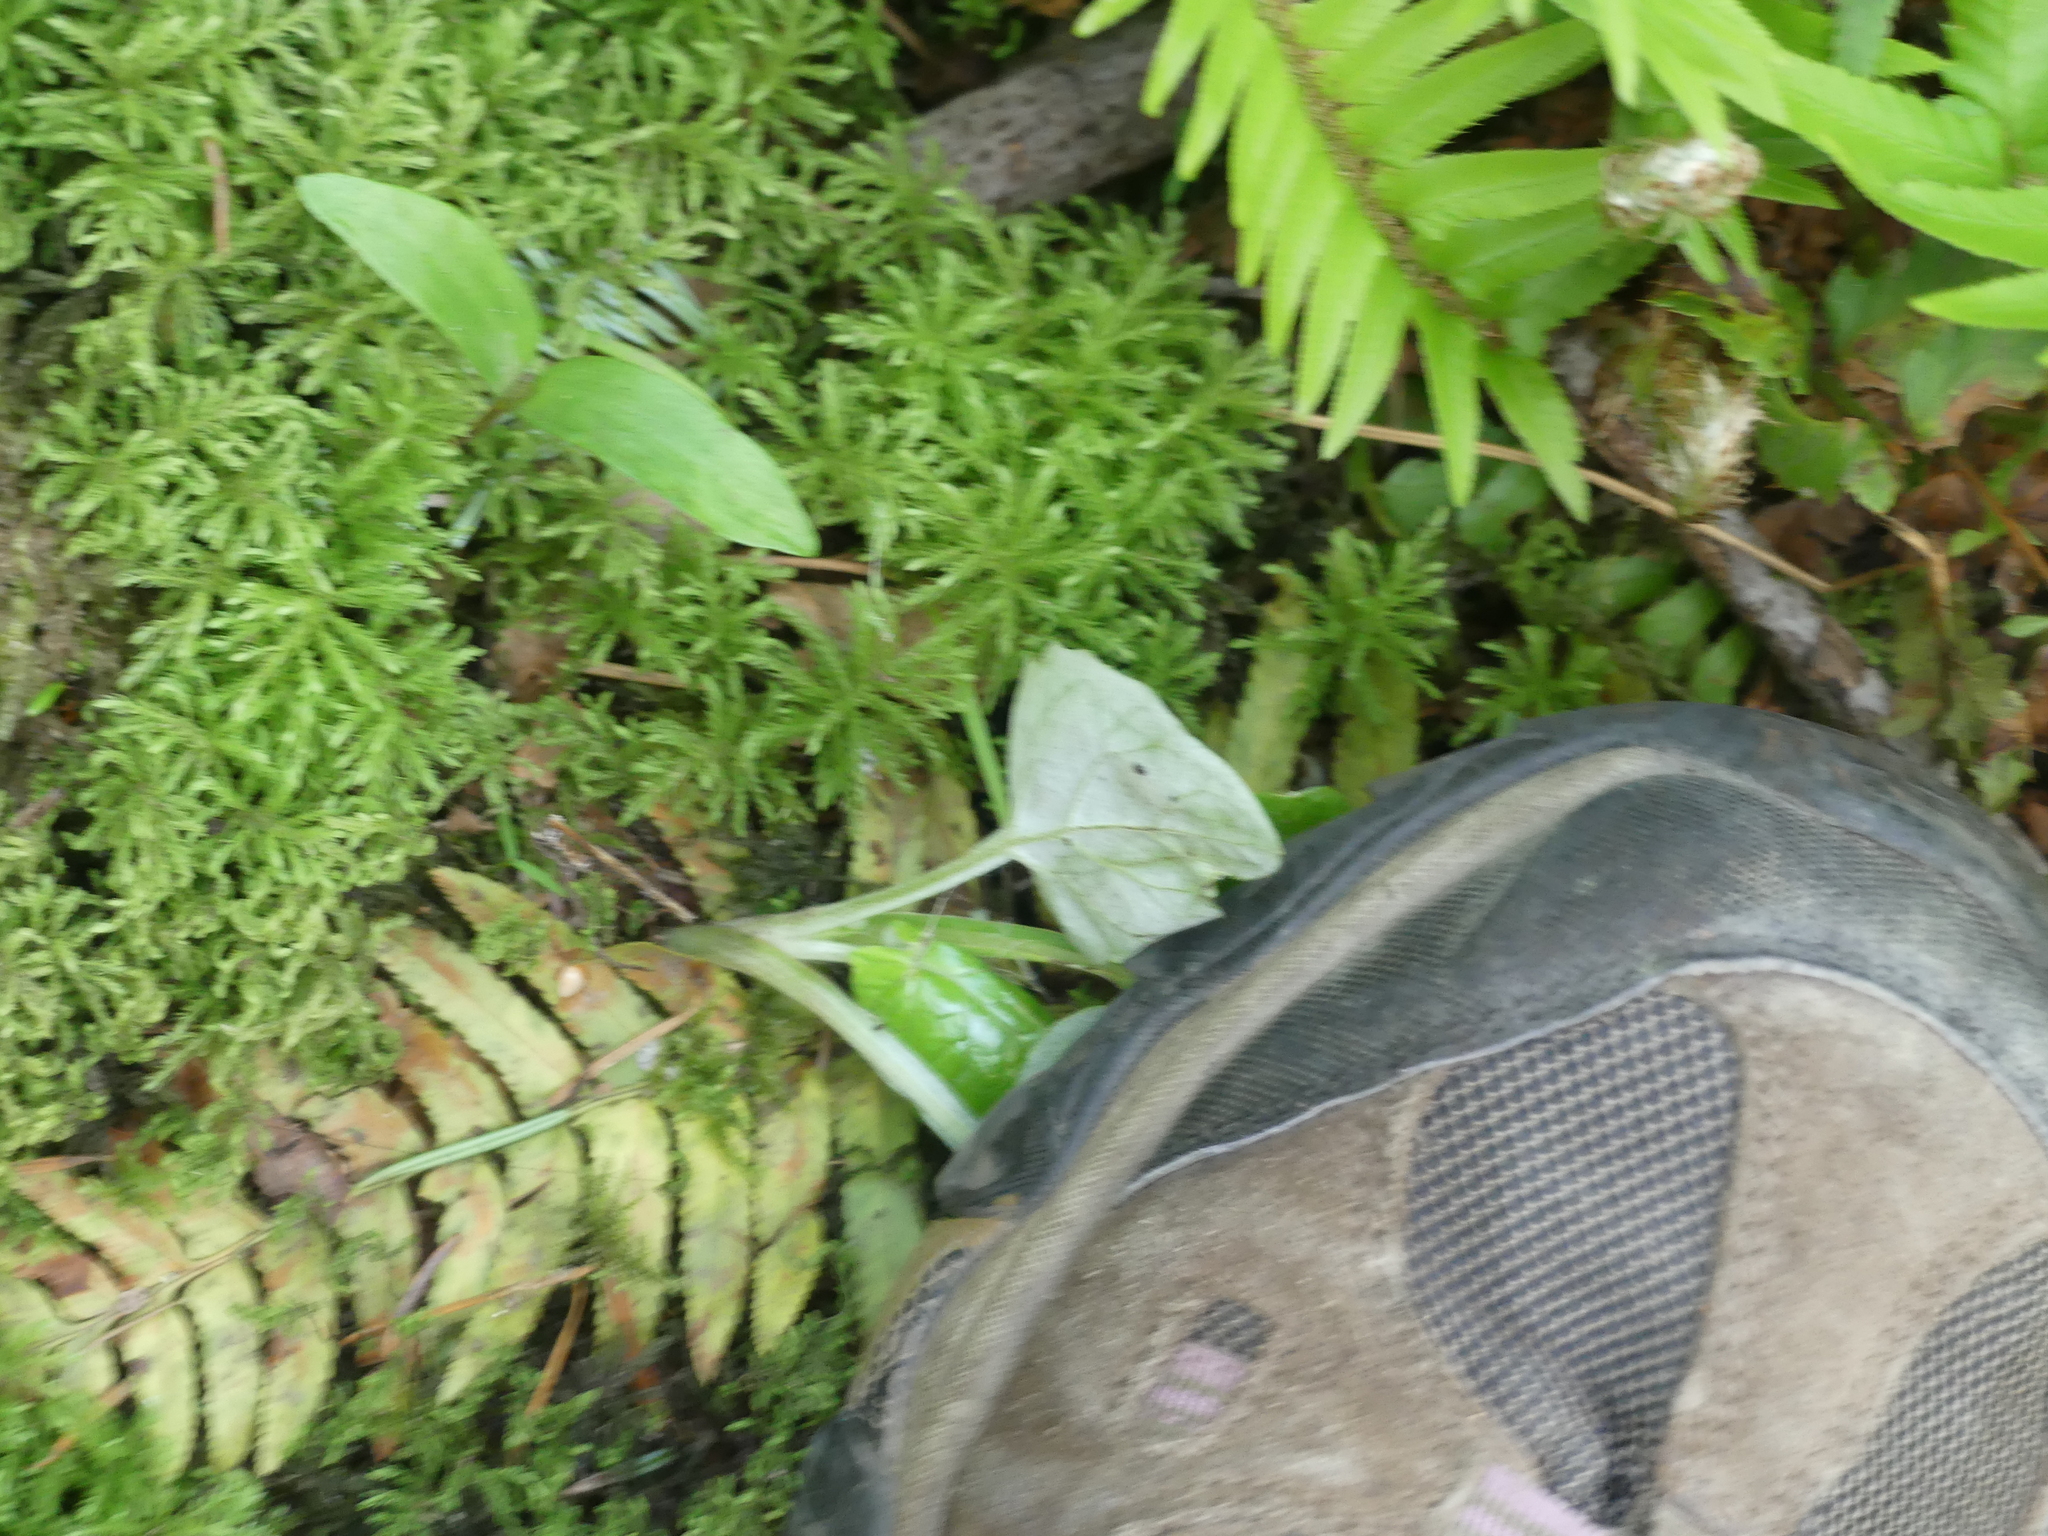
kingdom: Plantae
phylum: Tracheophyta
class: Magnoliopsida
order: Asterales
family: Asteraceae
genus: Adenocaulon
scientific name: Adenocaulon bicolor
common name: Trailplant
